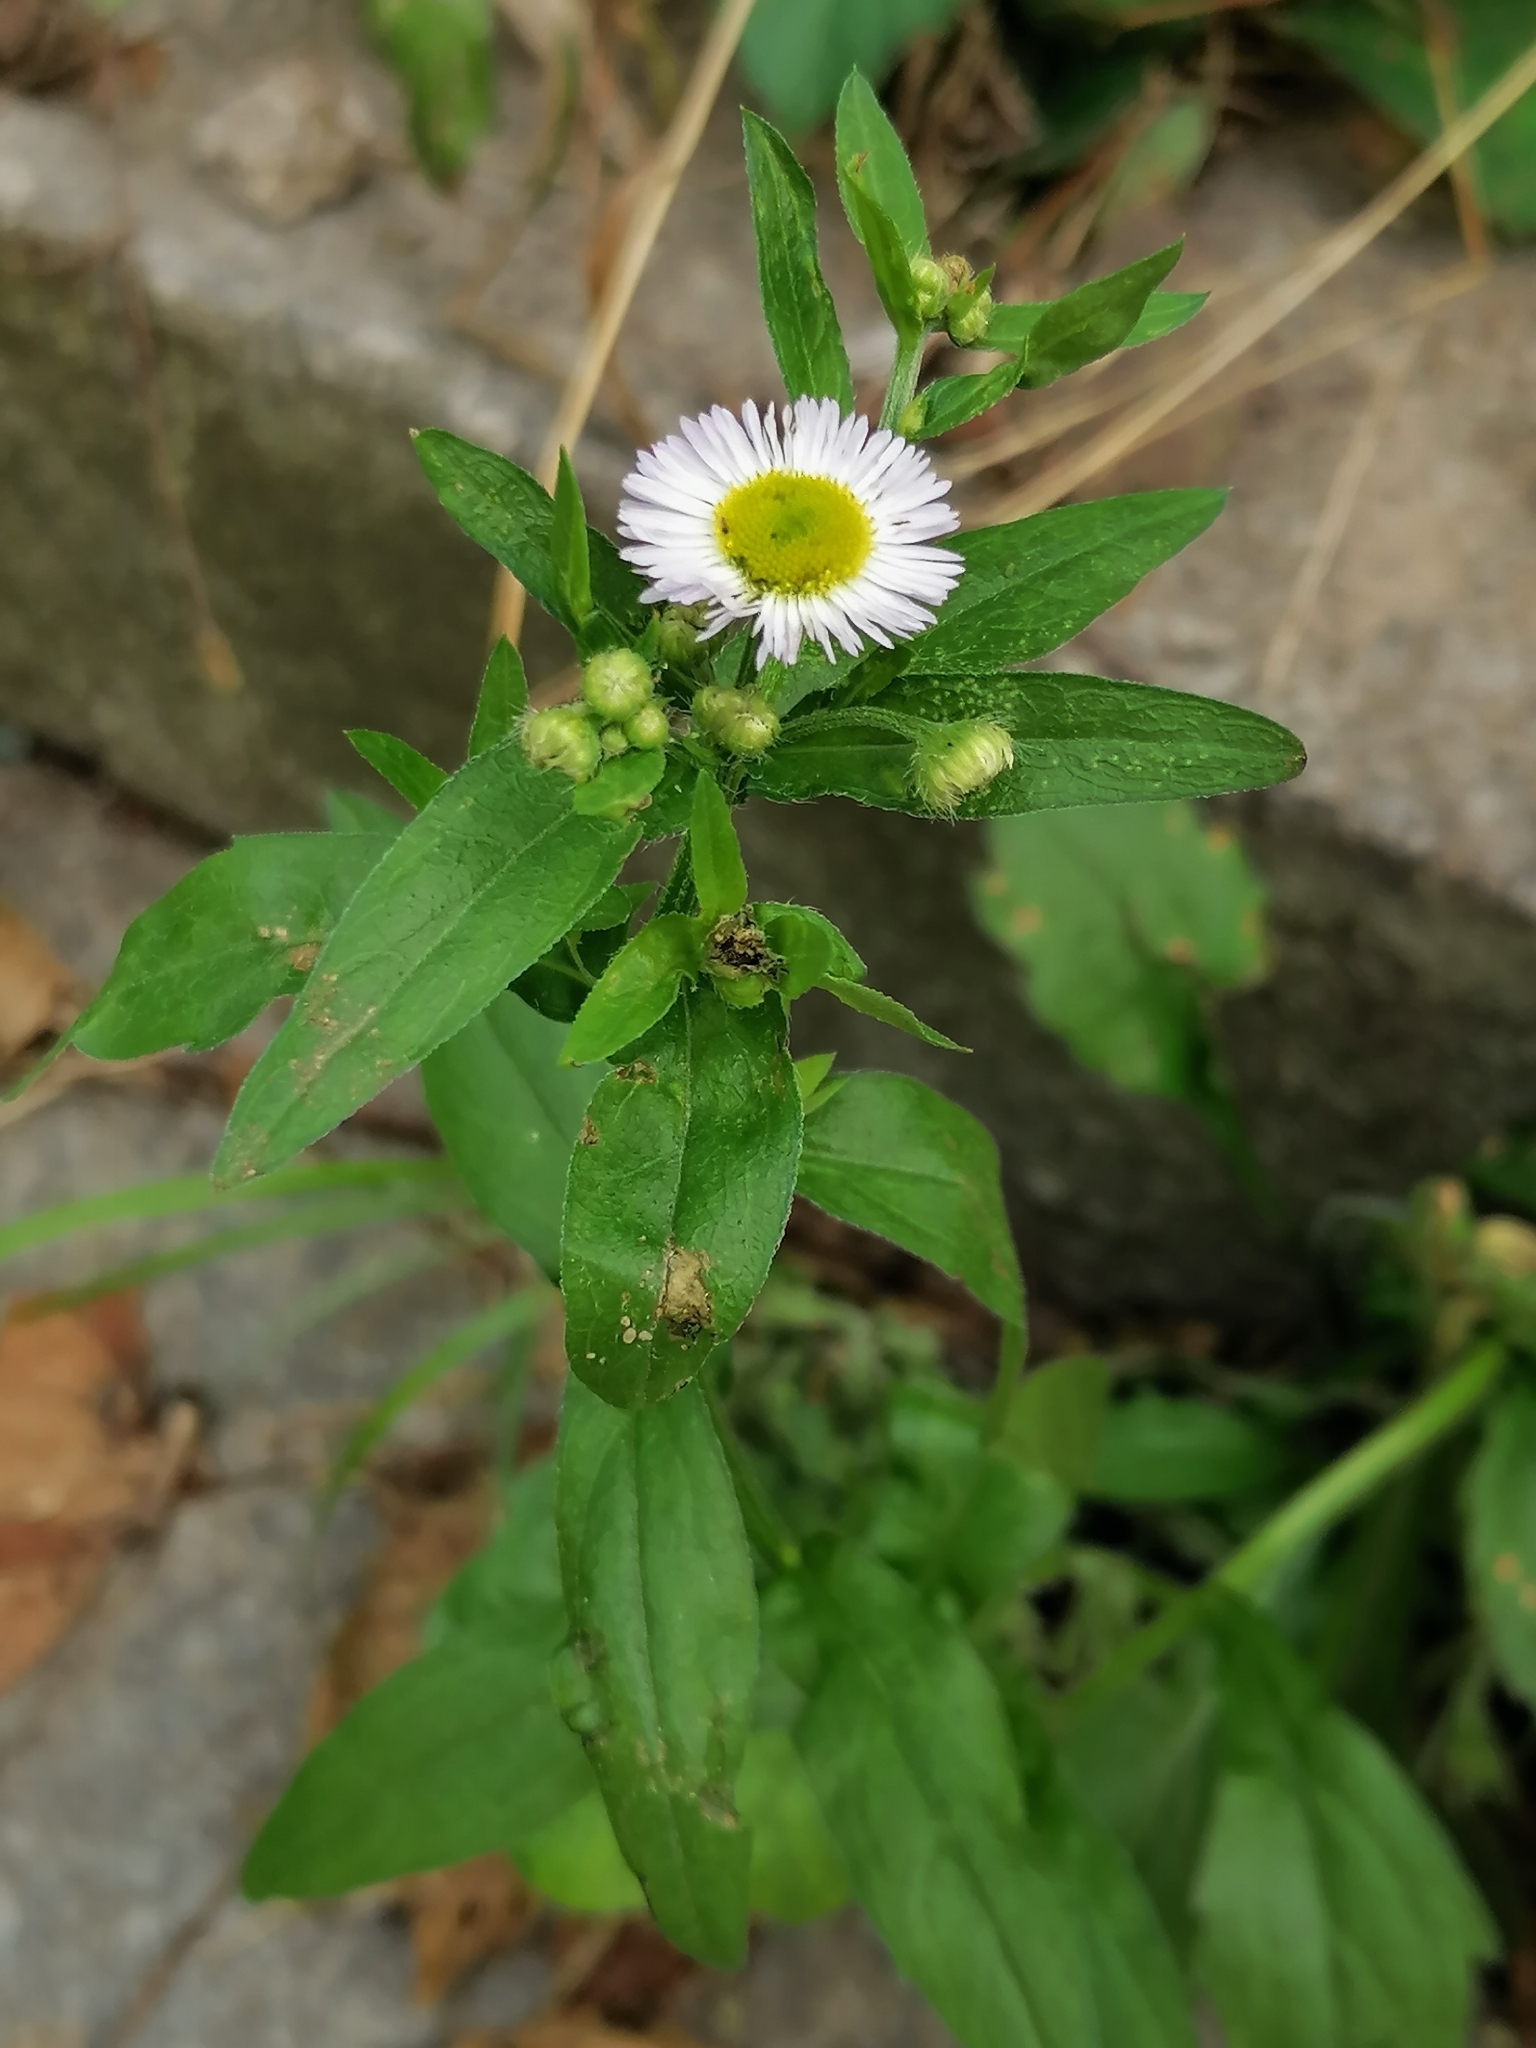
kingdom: Plantae
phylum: Tracheophyta
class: Magnoliopsida
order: Asterales
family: Asteraceae
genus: Erigeron
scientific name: Erigeron annuus
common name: Tall fleabane
